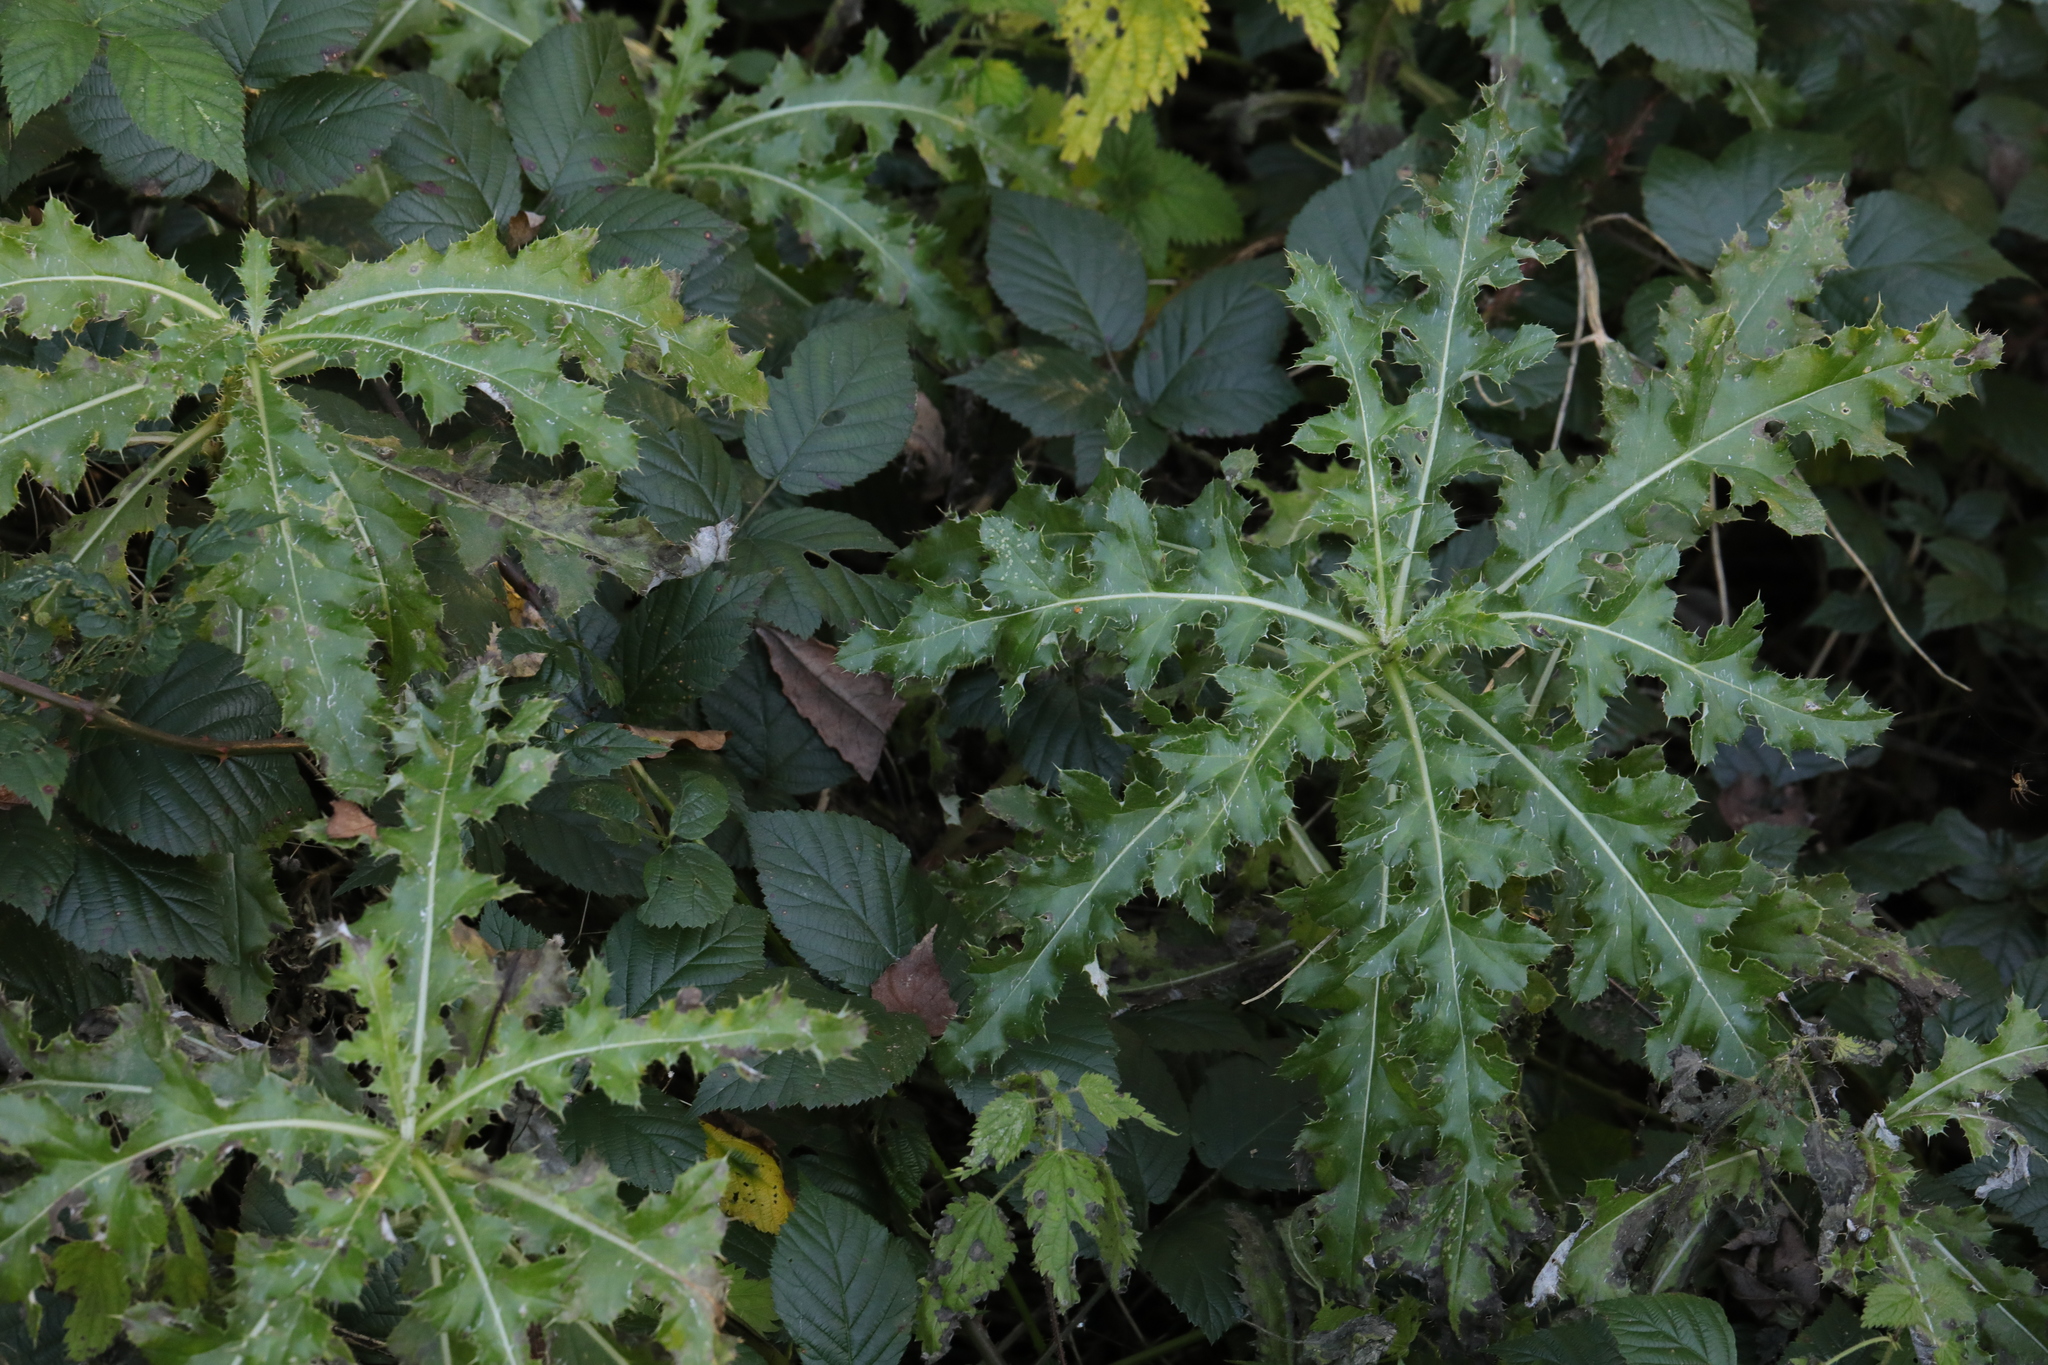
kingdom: Plantae
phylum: Tracheophyta
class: Magnoliopsida
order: Asterales
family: Asteraceae
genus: Cirsium
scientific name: Cirsium arvense
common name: Creeping thistle
